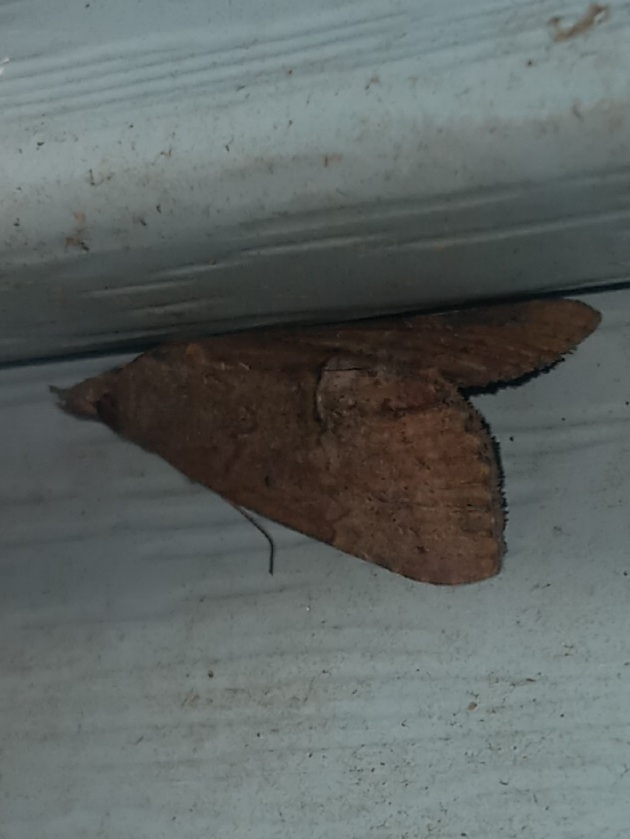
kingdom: Animalia
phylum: Arthropoda
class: Insecta
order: Lepidoptera
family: Erebidae
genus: Hypena
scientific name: Hypena scabra
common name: Green cloverworm
